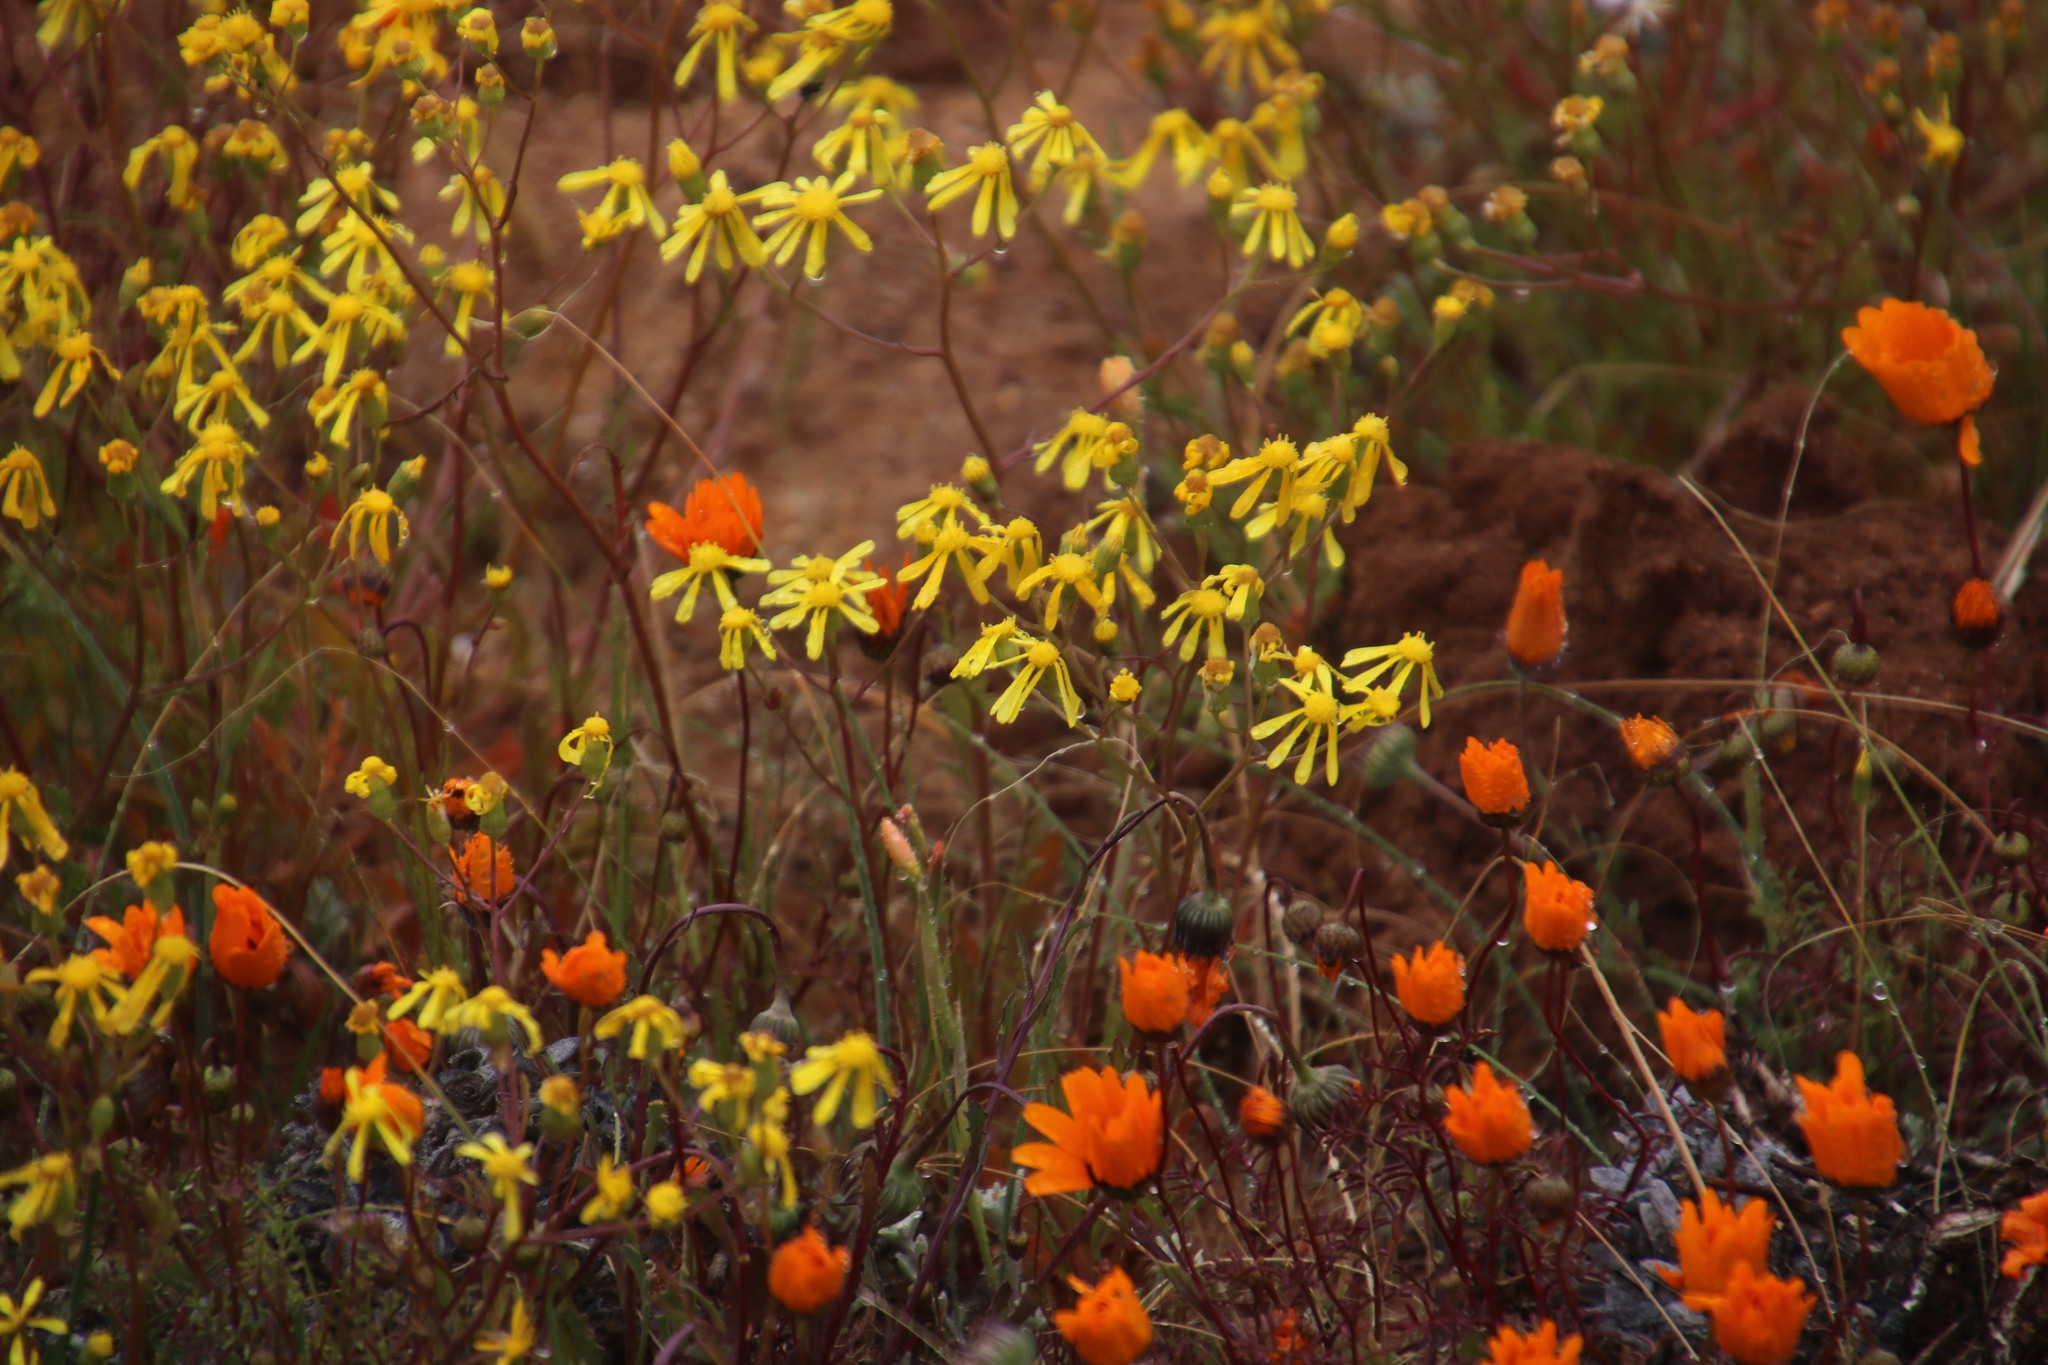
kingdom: Plantae
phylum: Tracheophyta
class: Magnoliopsida
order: Asterales
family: Asteraceae
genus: Ursinia
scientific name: Ursinia calenduliflora
